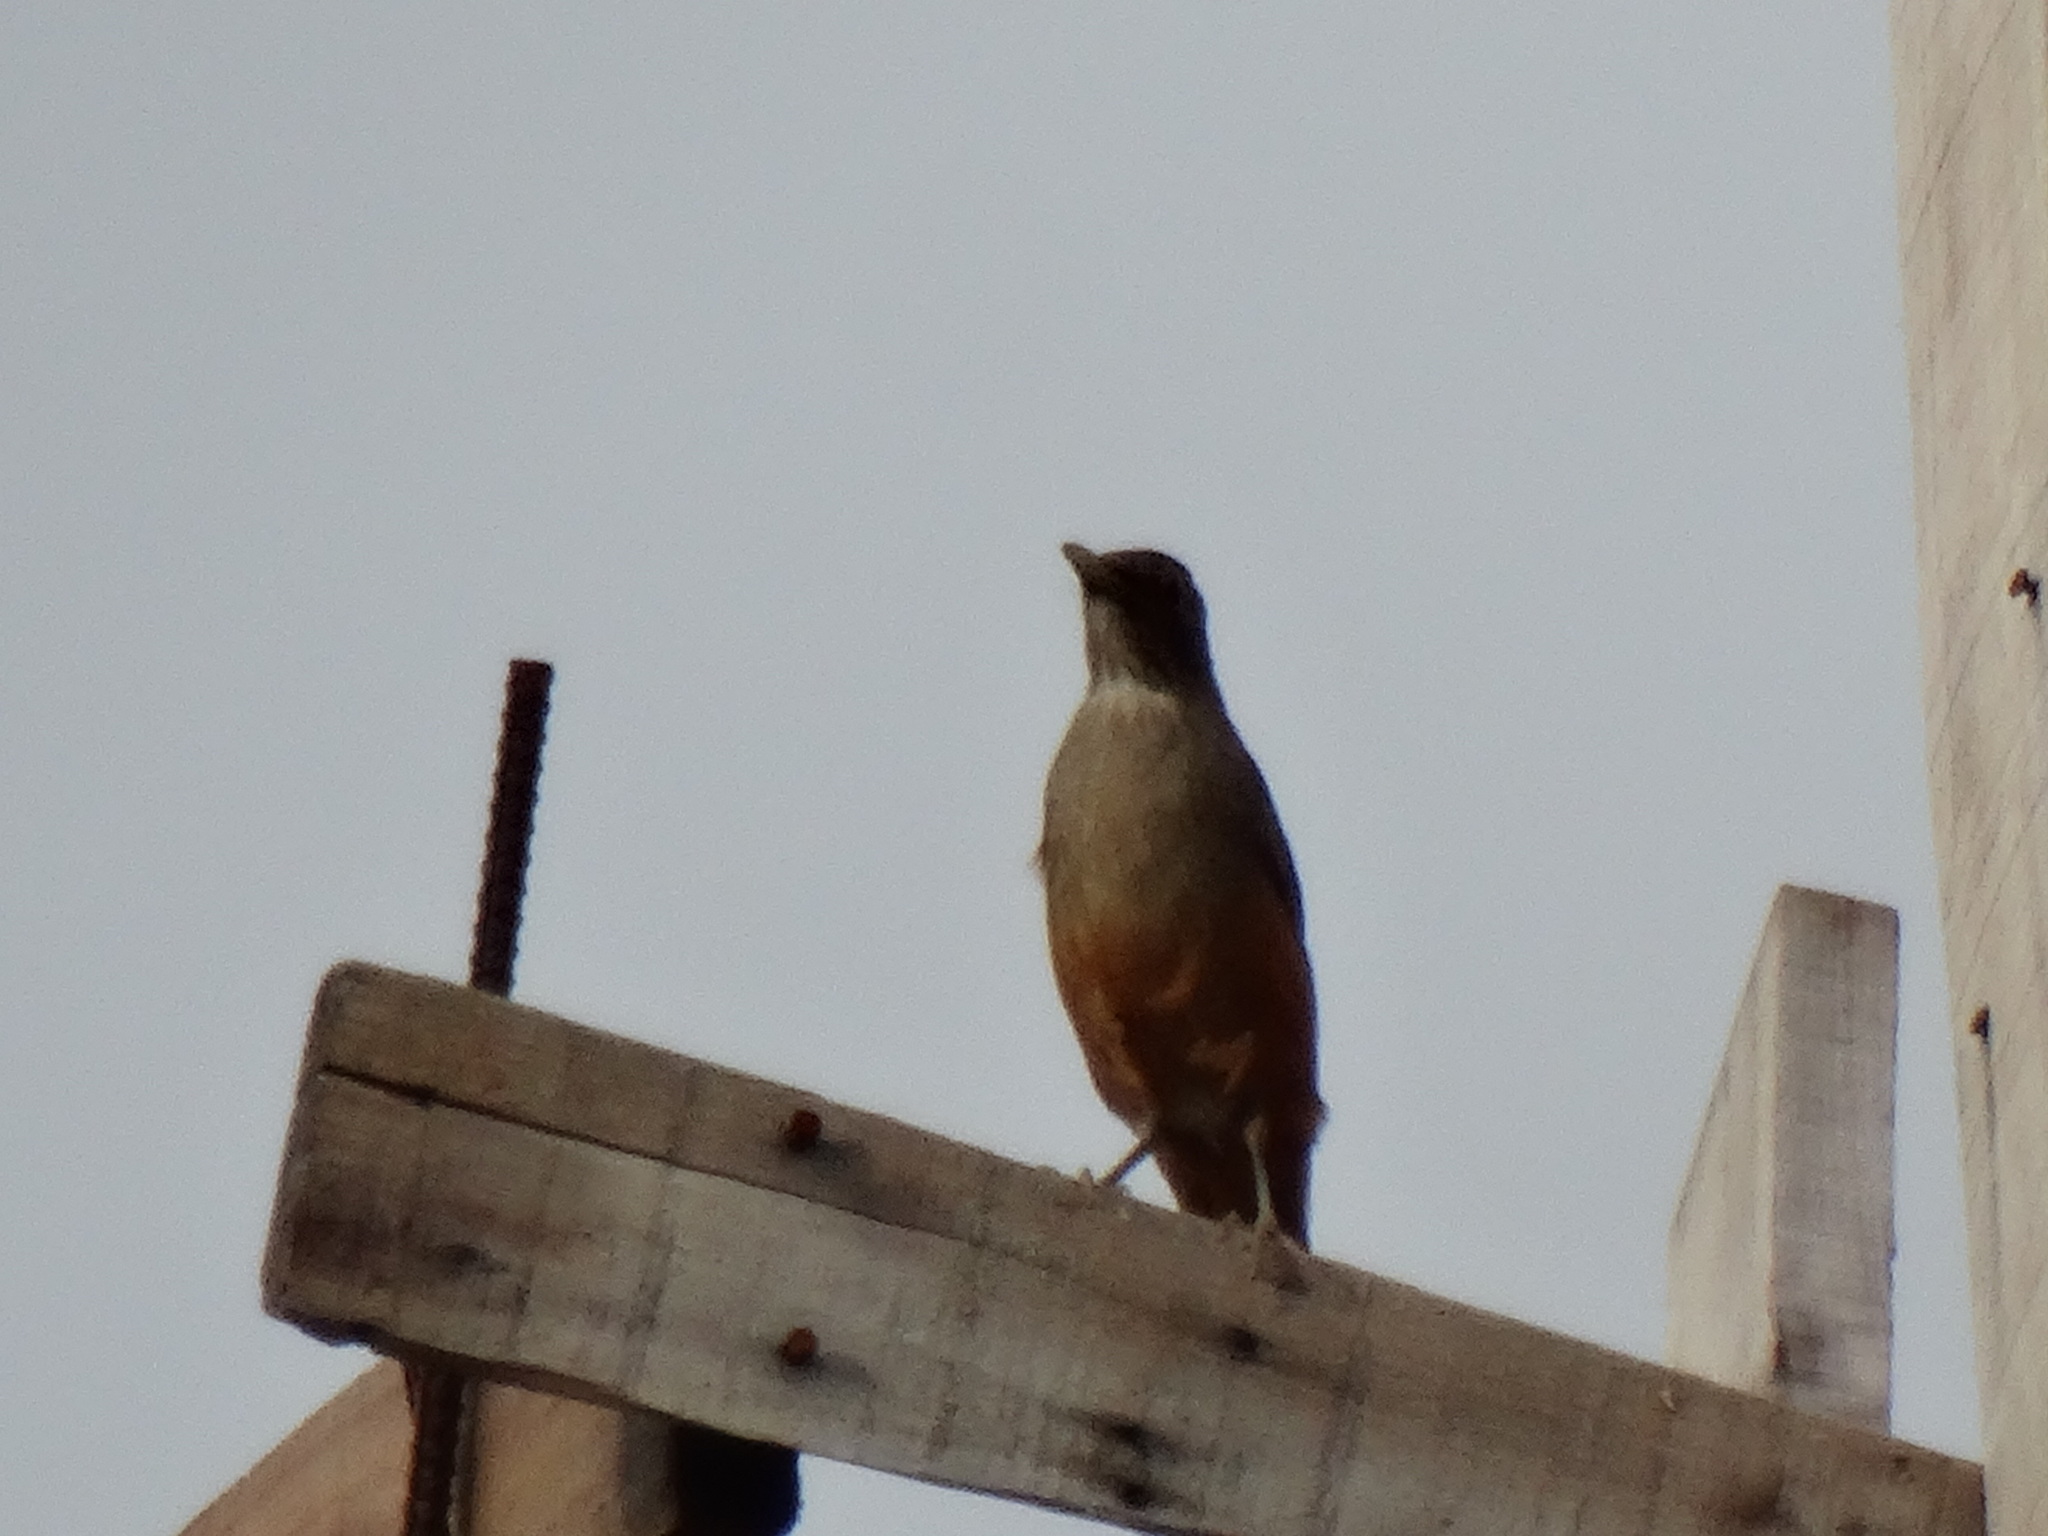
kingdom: Animalia
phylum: Chordata
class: Aves
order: Passeriformes
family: Turdidae
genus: Turdus
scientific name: Turdus rufiventris
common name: Rufous-bellied thrush
